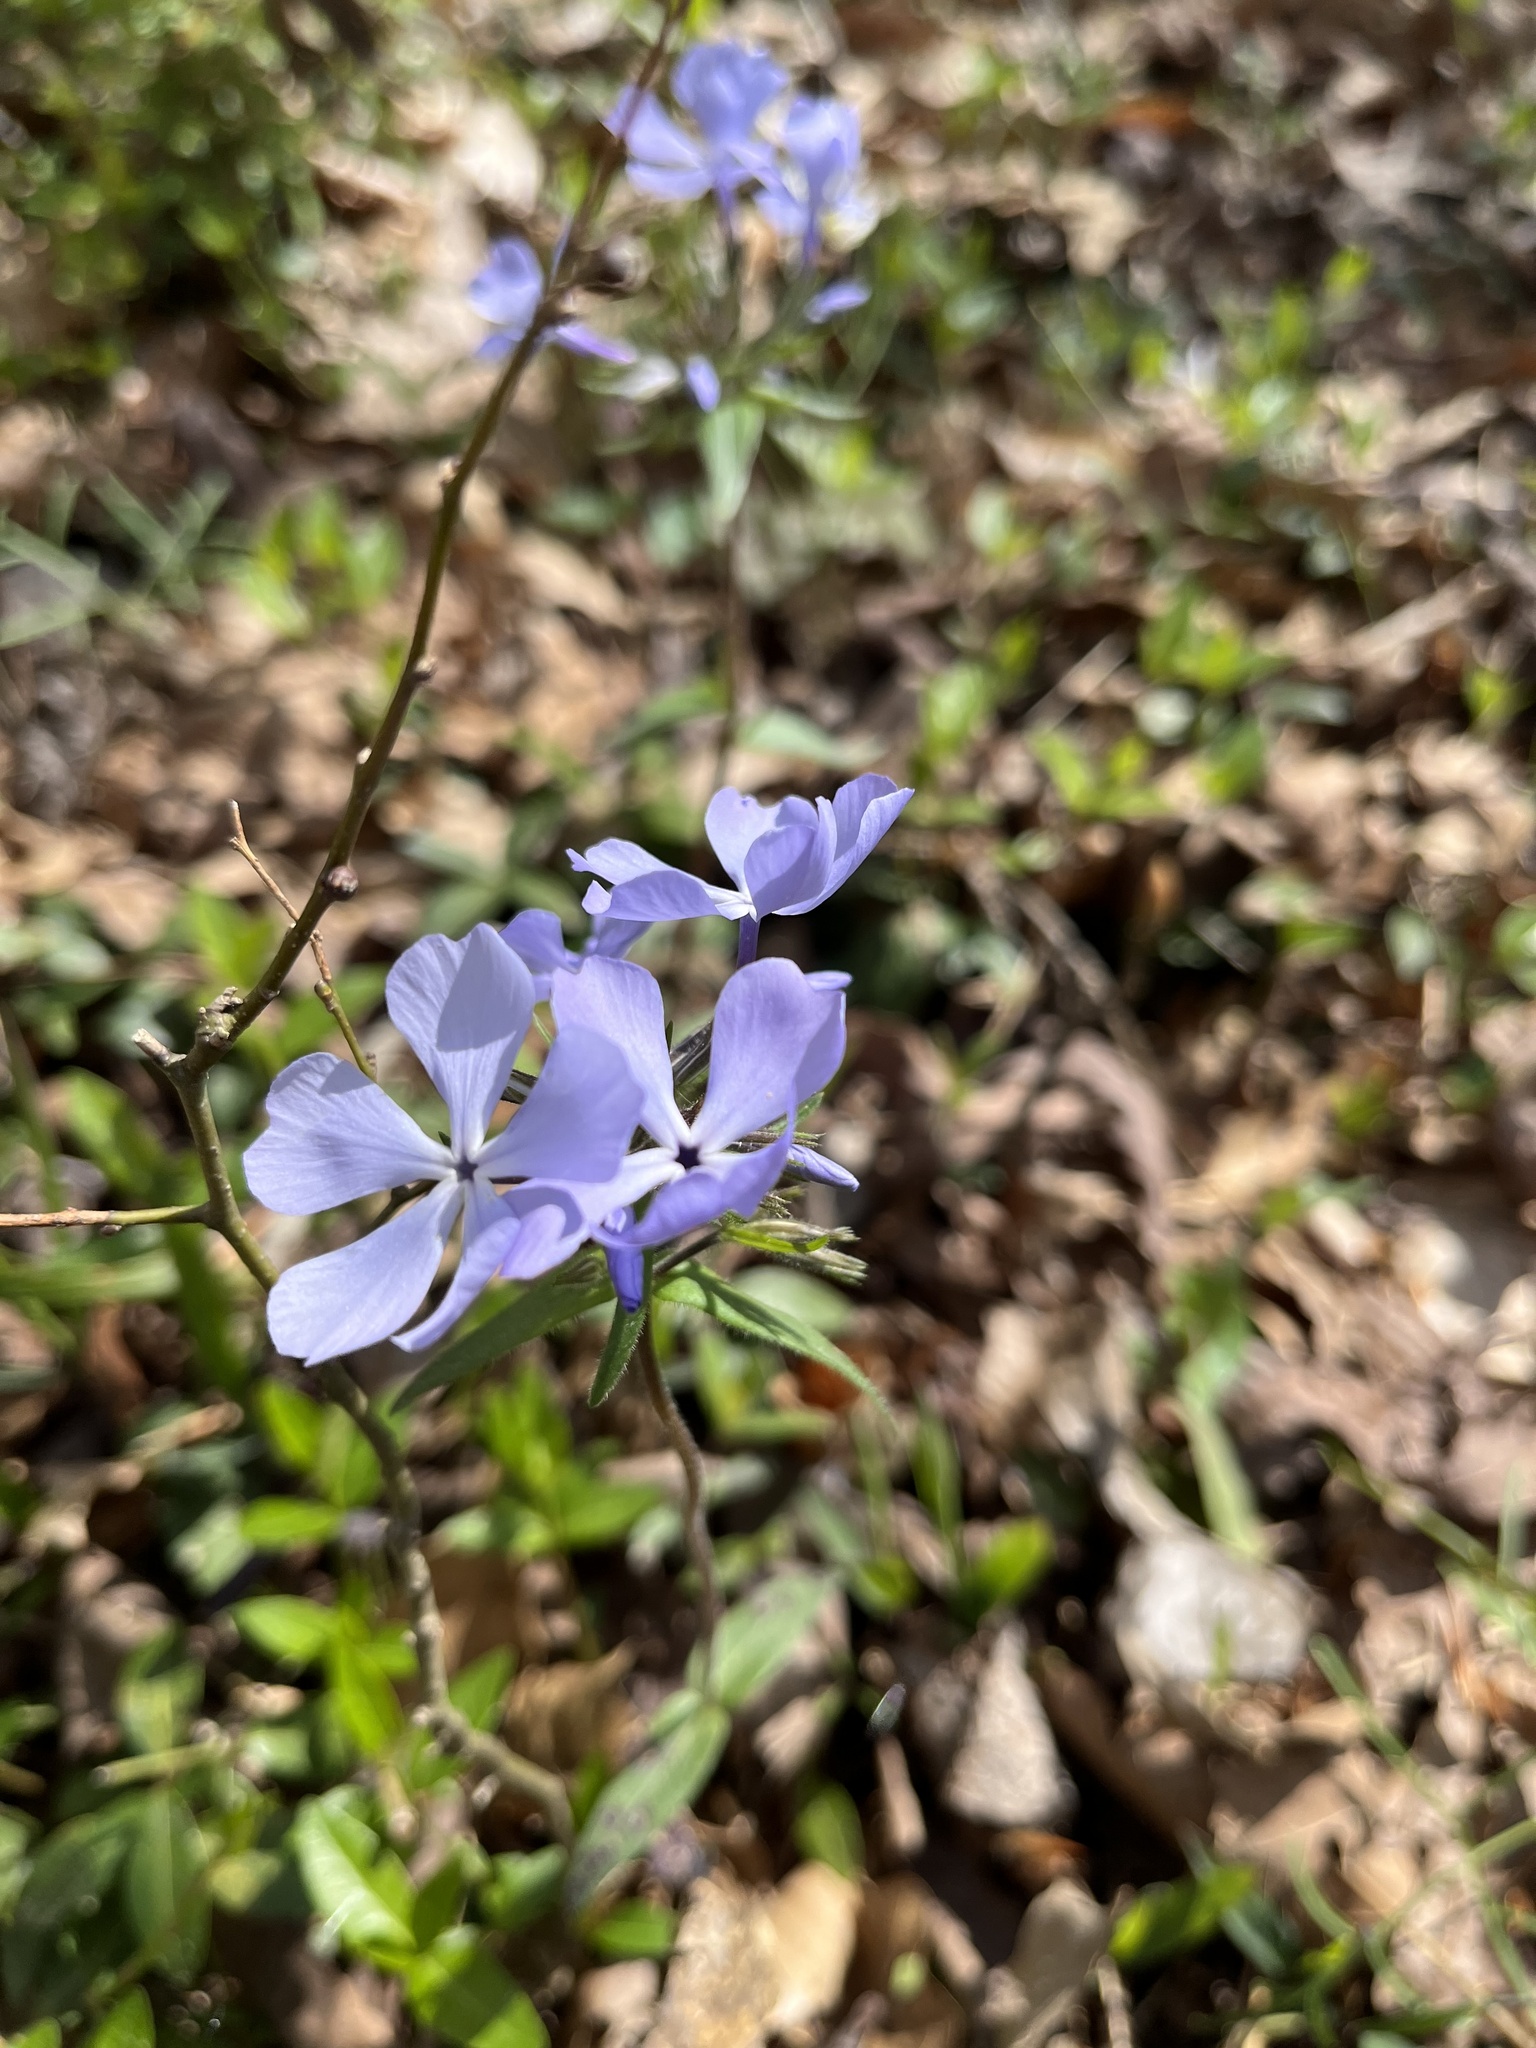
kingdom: Plantae
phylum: Tracheophyta
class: Magnoliopsida
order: Ericales
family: Polemoniaceae
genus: Phlox
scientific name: Phlox divaricata
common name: Blue phlox
